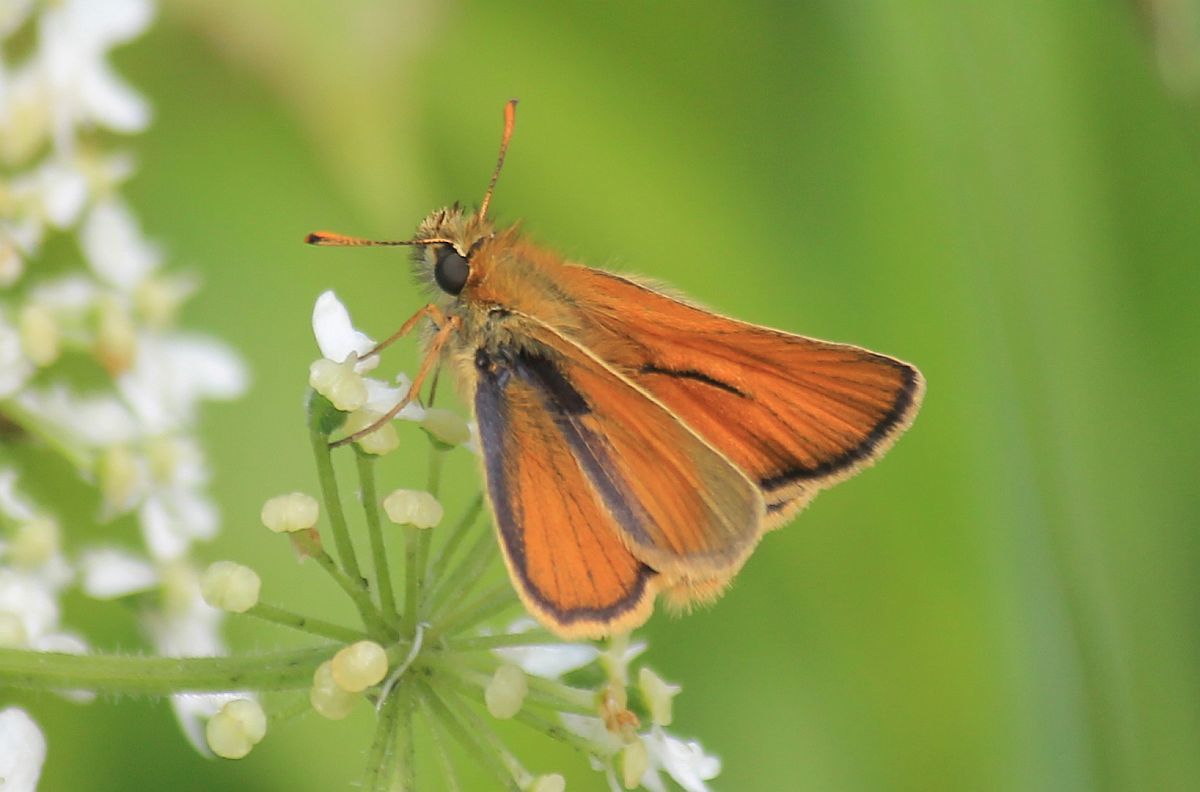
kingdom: Animalia
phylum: Arthropoda
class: Insecta
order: Lepidoptera
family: Hesperiidae
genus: Thymelicus
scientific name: Thymelicus sylvestris
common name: Small skipper
